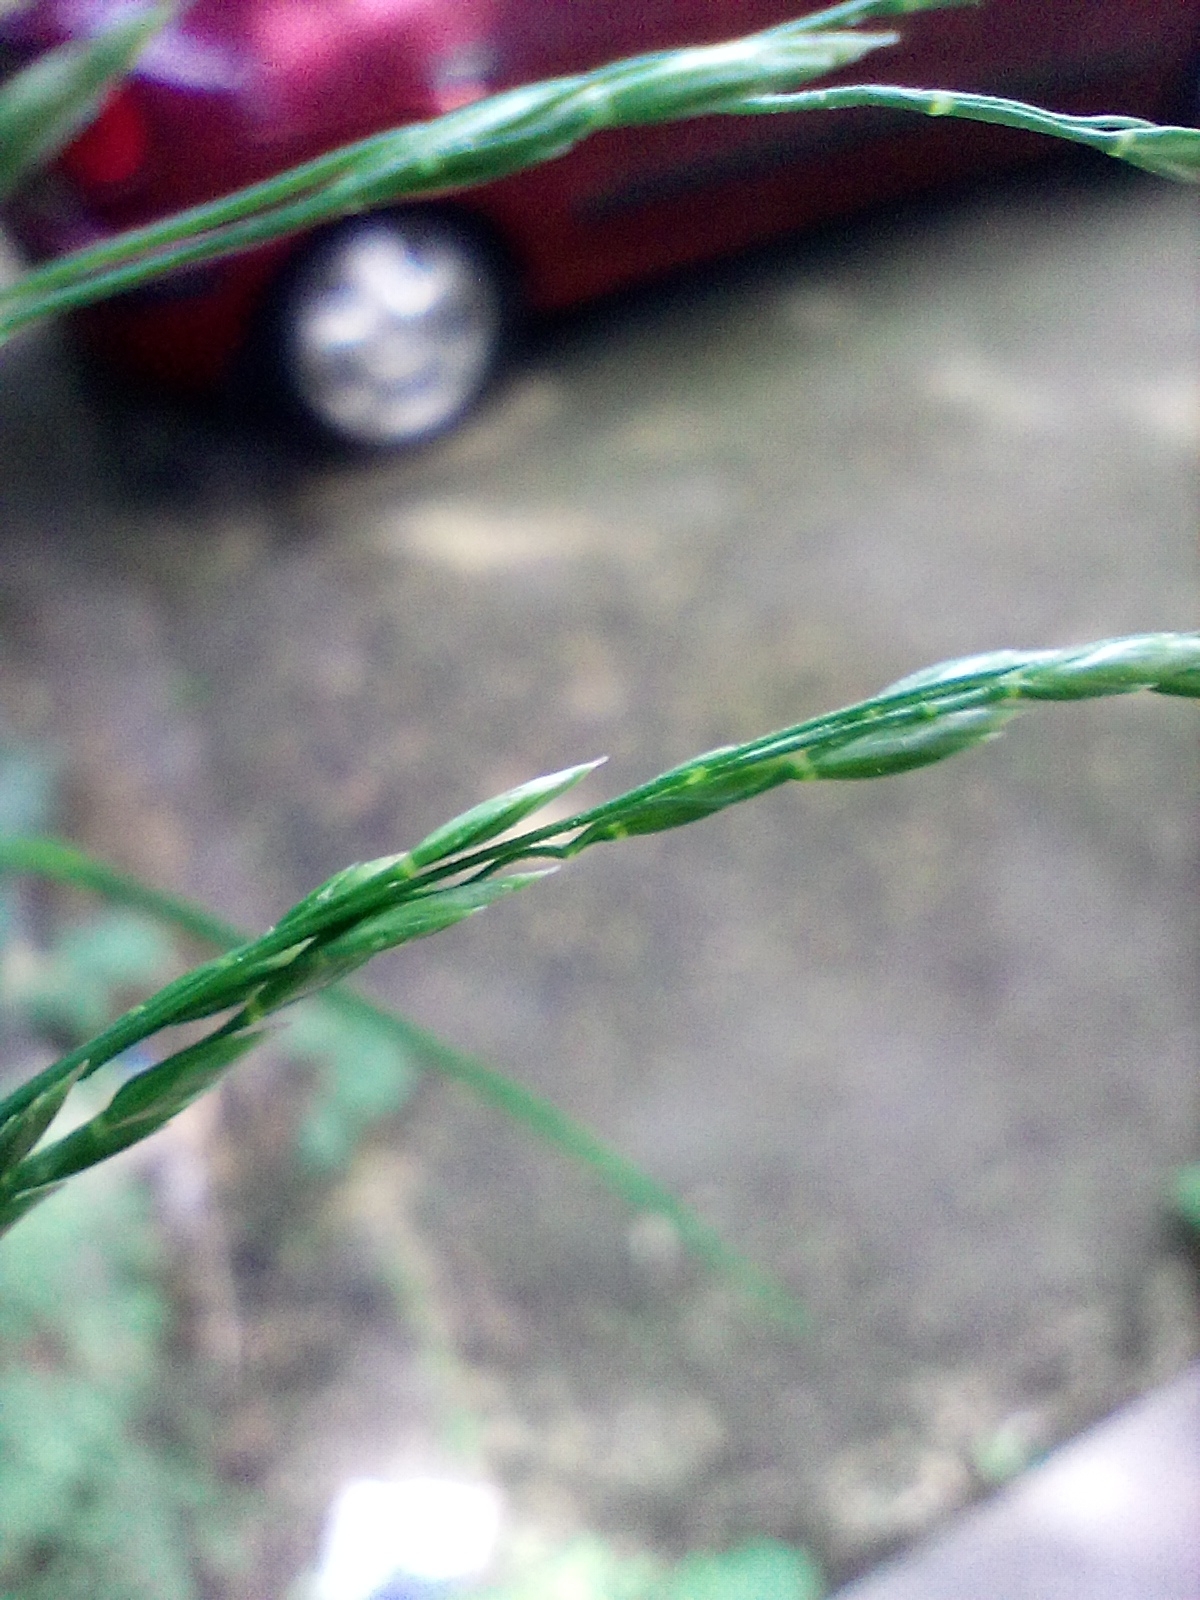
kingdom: Plantae
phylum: Tracheophyta
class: Liliopsida
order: Poales
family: Poaceae
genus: Poa
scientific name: Poa nemoralis
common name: Wood bluegrass
